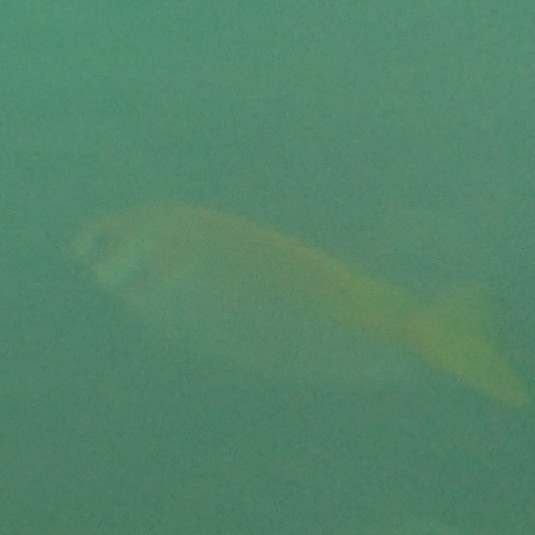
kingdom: Animalia
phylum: Chordata
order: Perciformes
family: Siganidae
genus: Siganus
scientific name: Siganus virgatus
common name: Barhead spinefoot
